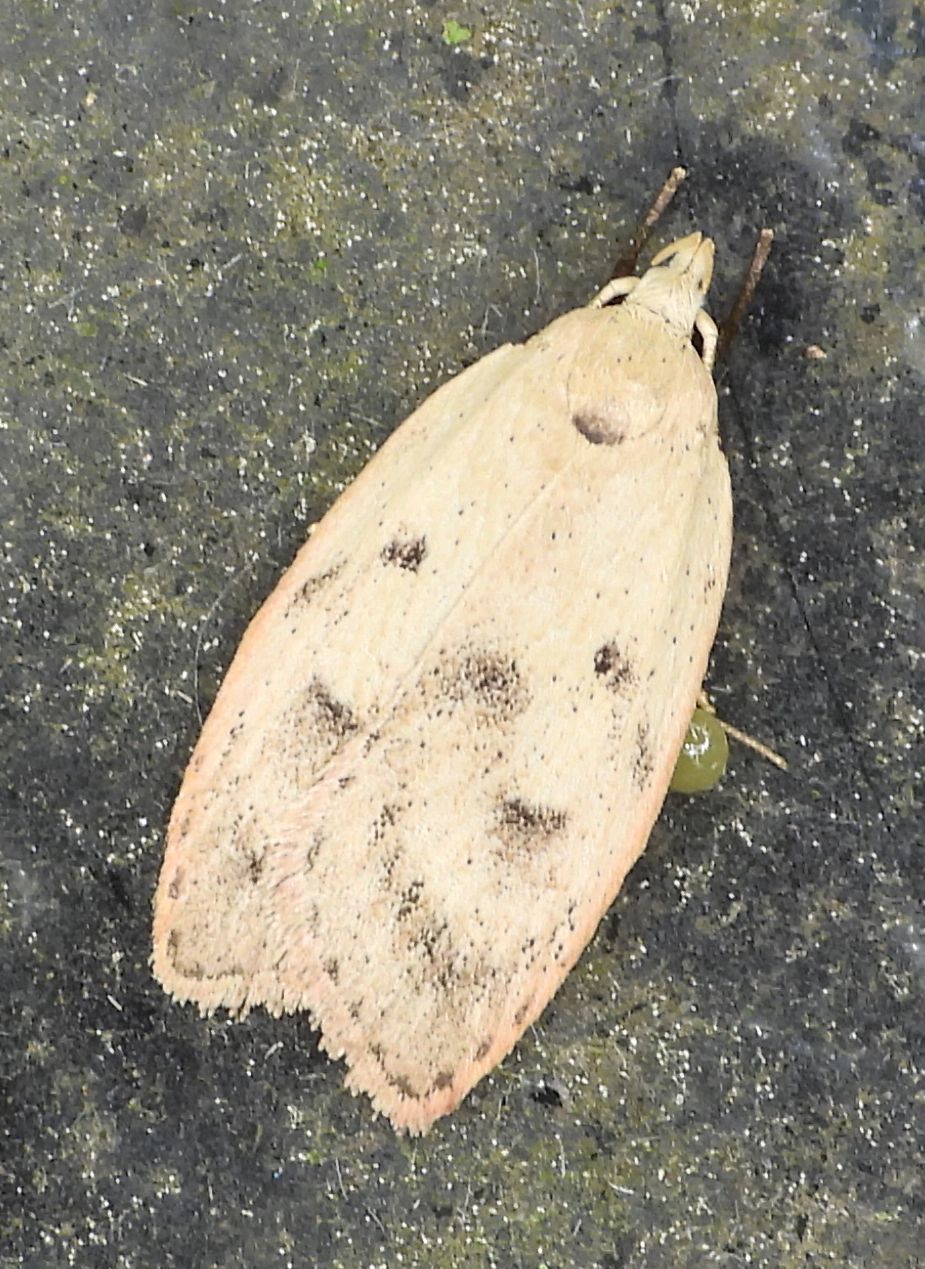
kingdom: Animalia
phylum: Arthropoda
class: Insecta
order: Lepidoptera
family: Peleopodidae
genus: Machimia
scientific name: Machimia tentoriferella
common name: Gold-striped leaftier moth
